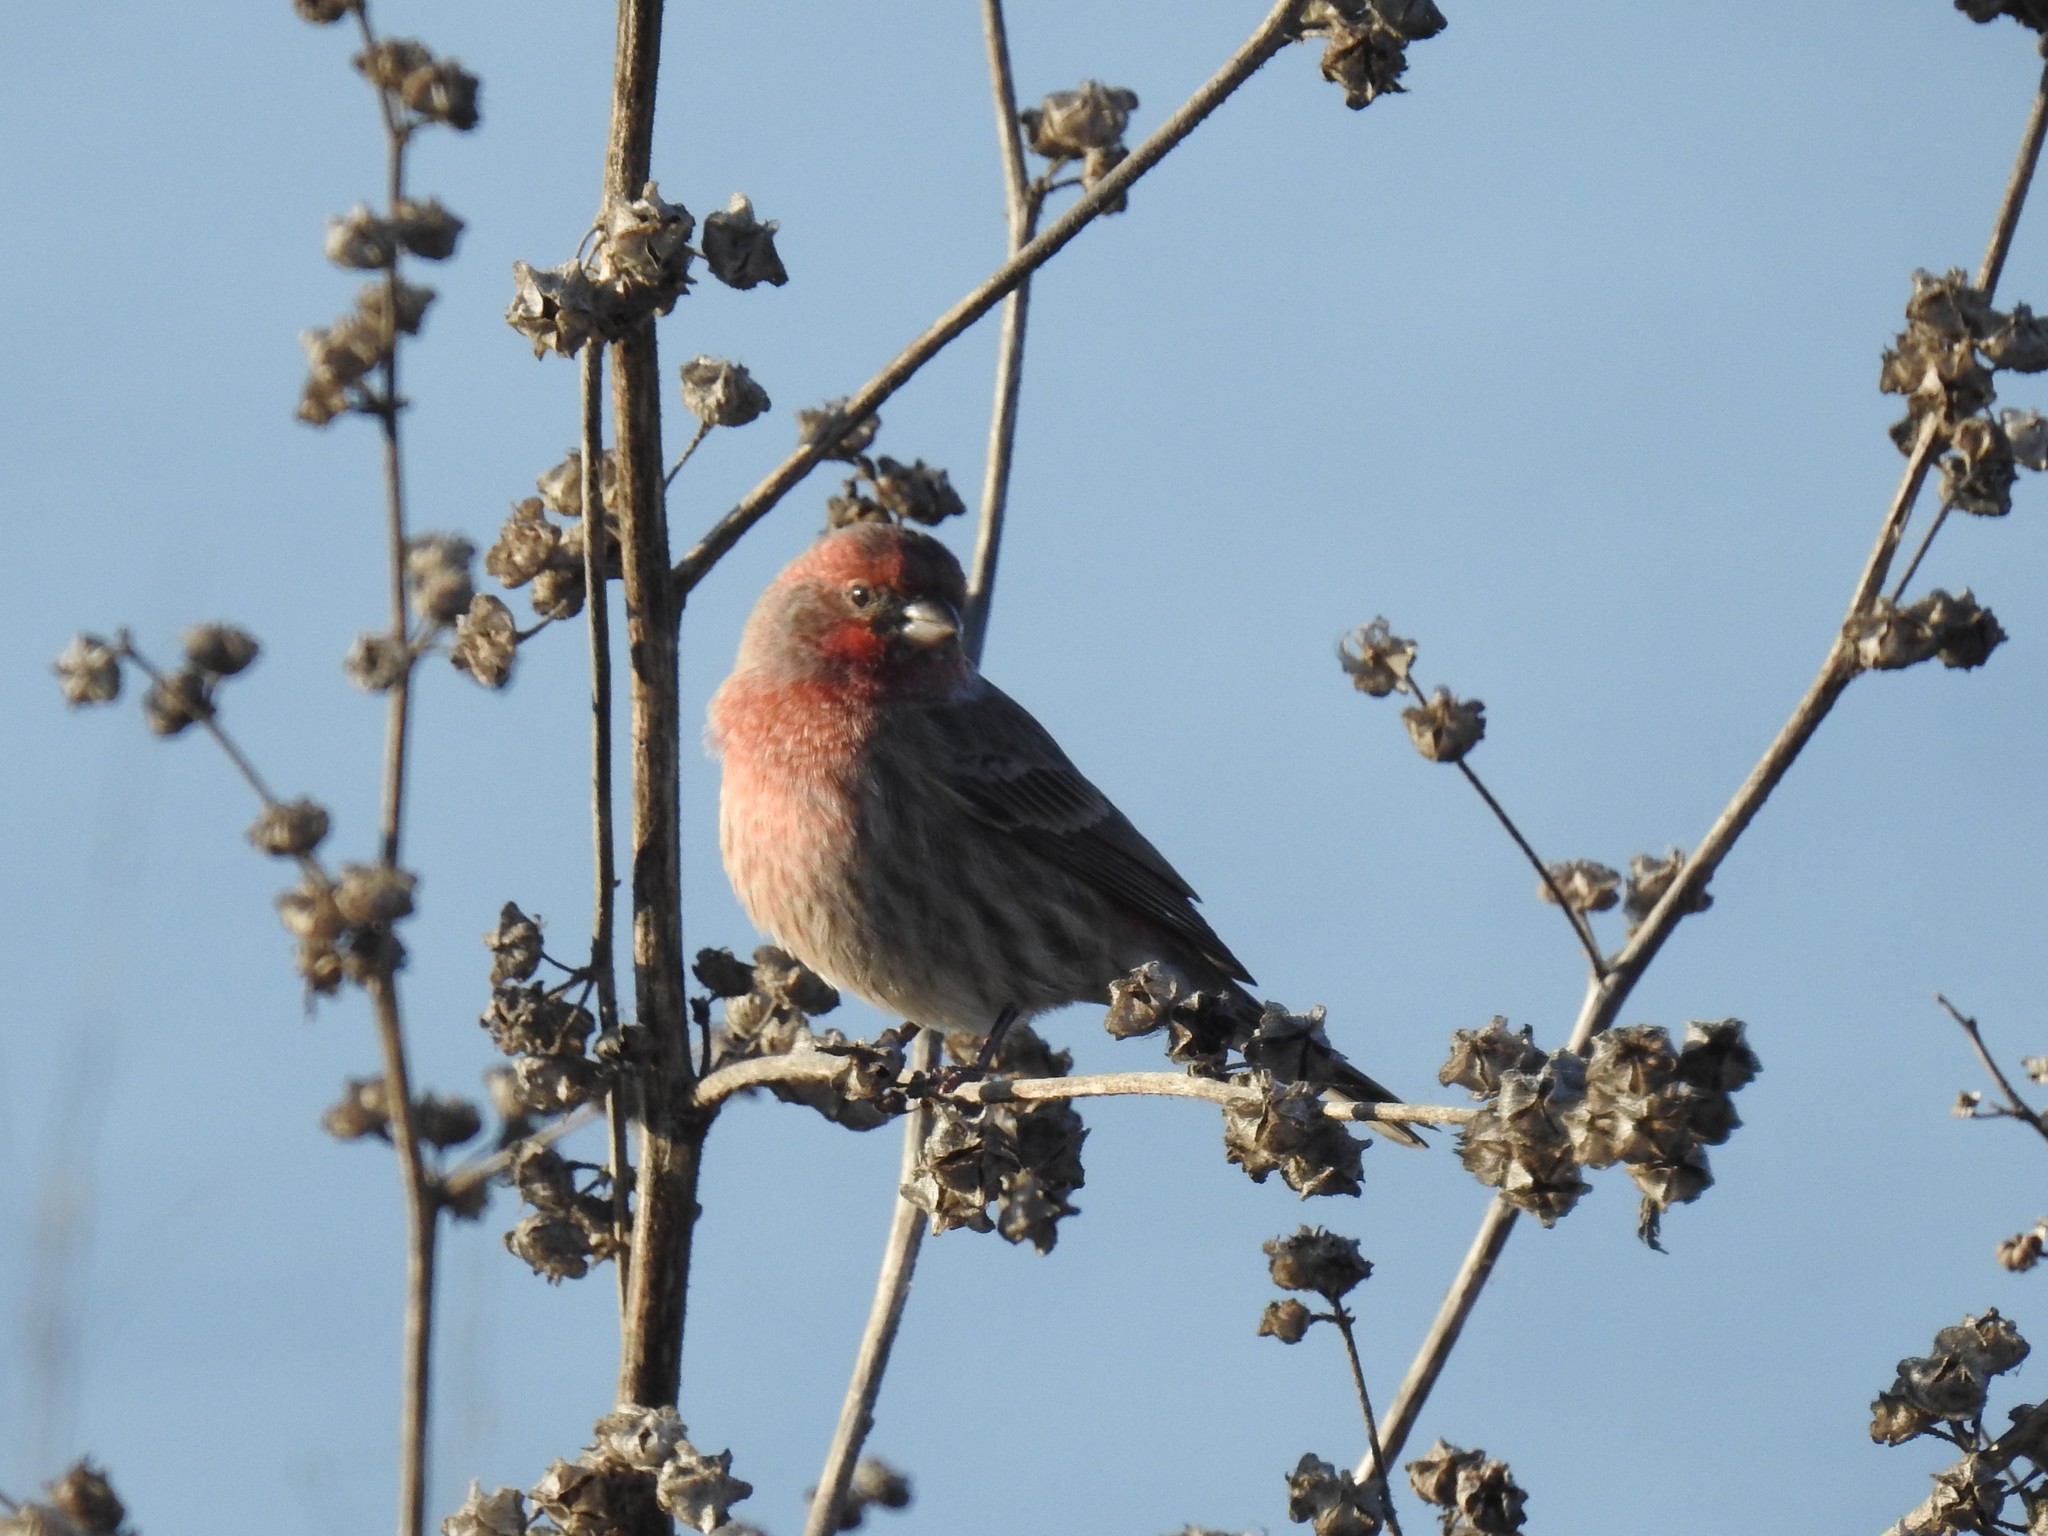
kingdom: Animalia
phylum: Chordata
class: Aves
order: Passeriformes
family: Fringillidae
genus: Haemorhous
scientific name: Haemorhous mexicanus
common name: House finch
